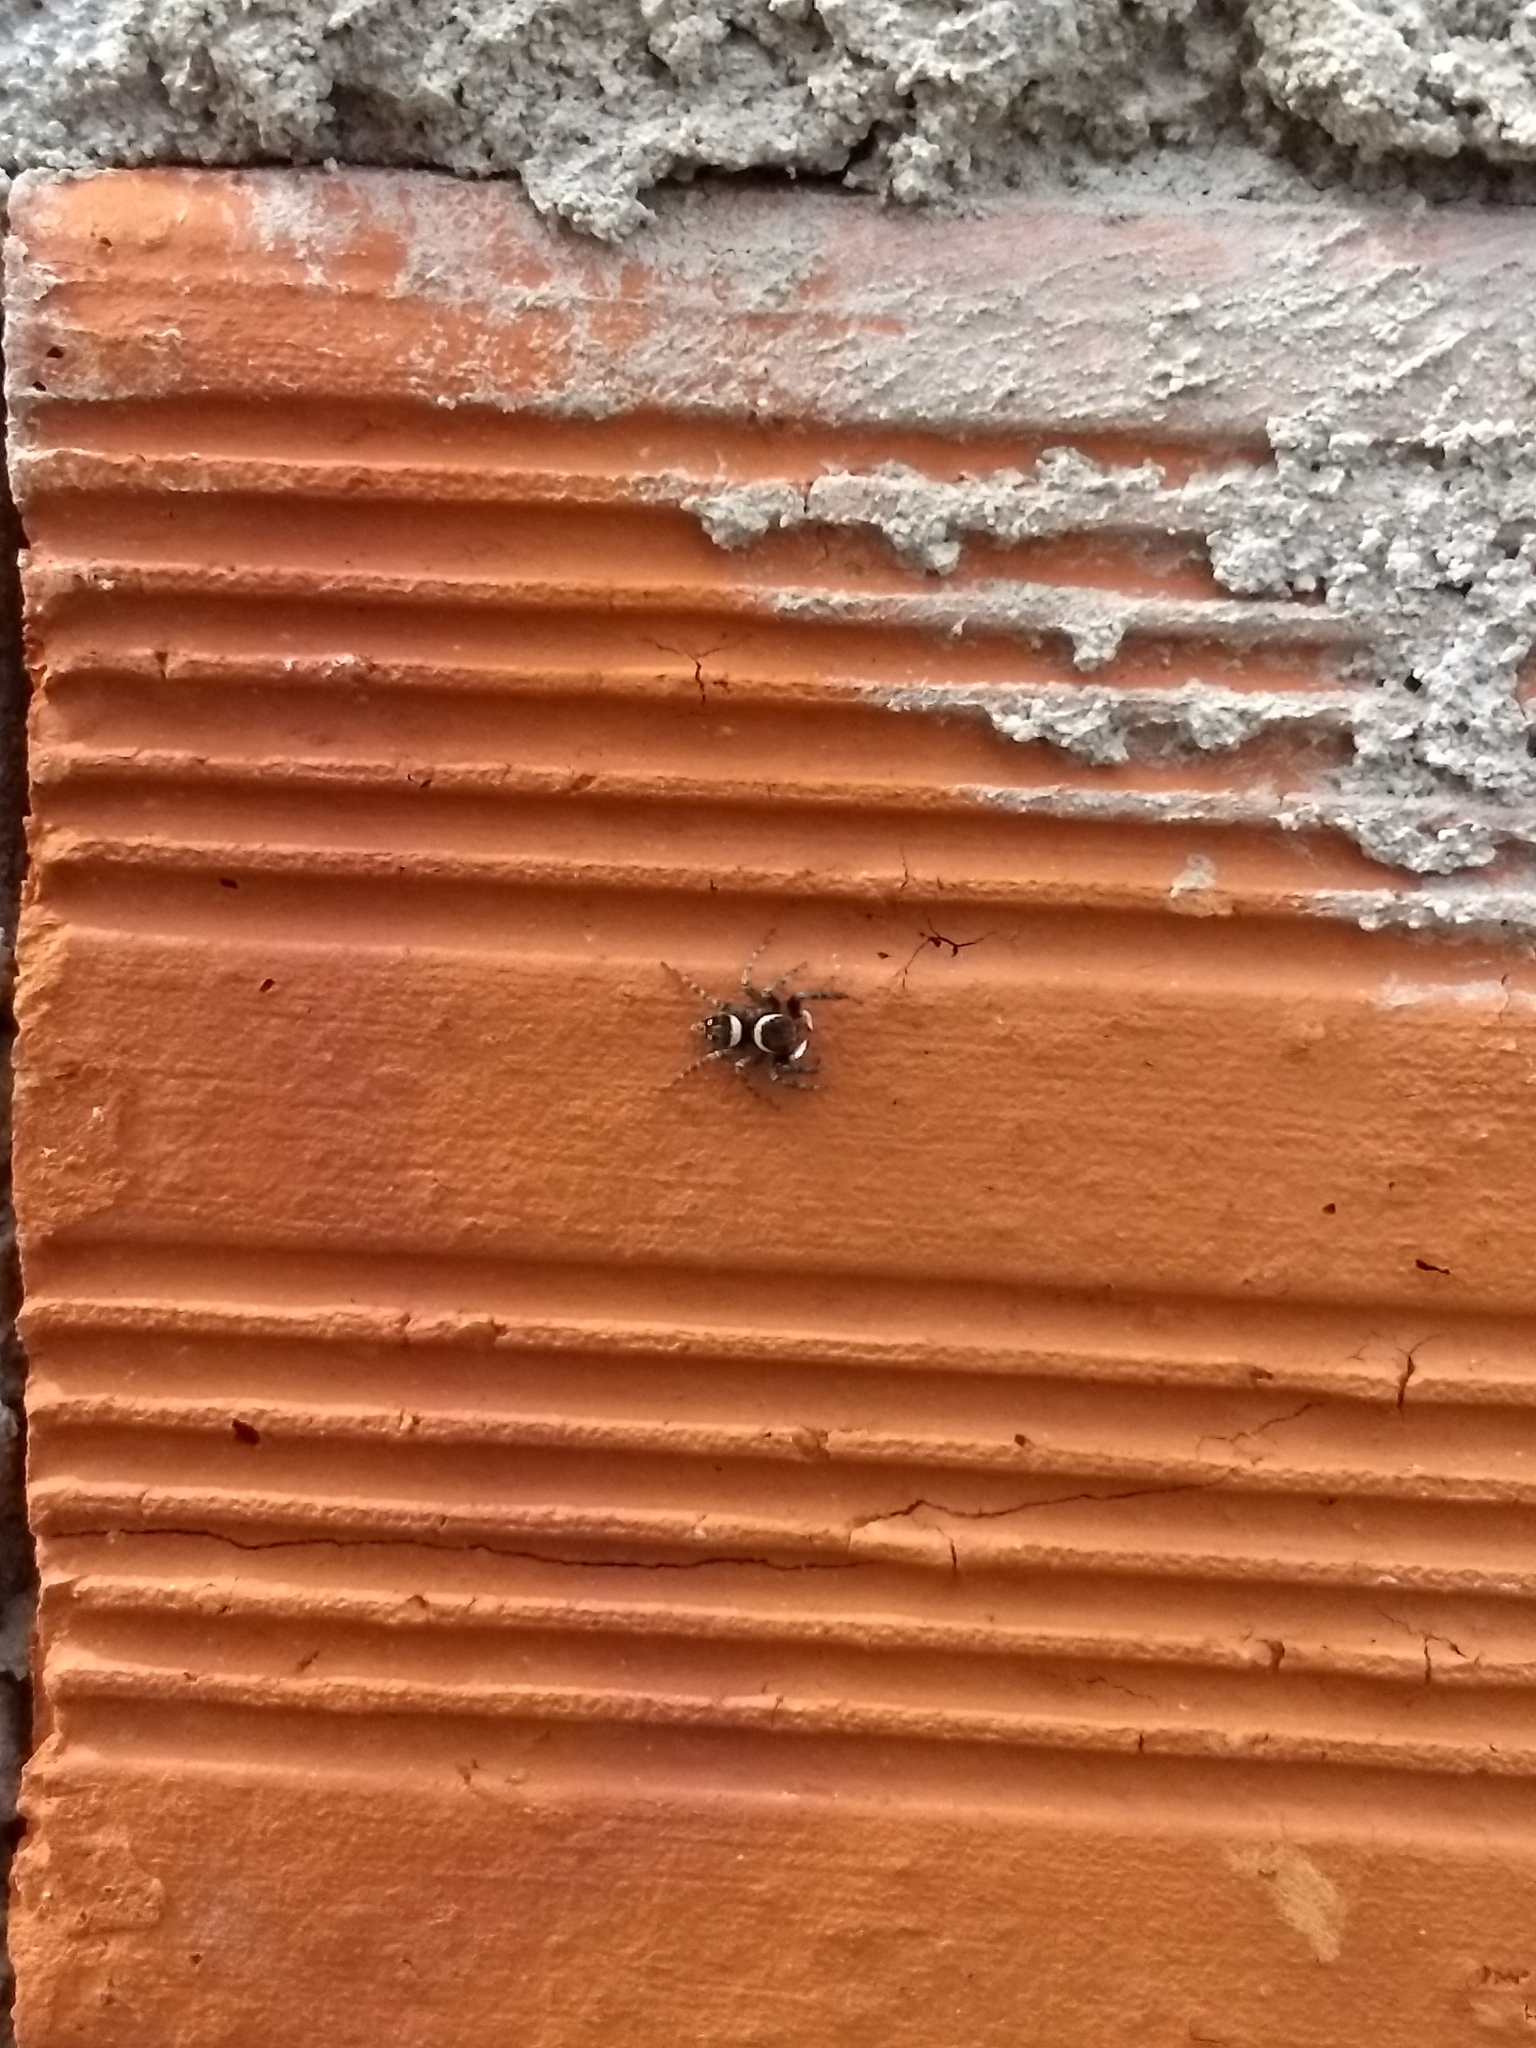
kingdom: Animalia
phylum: Arthropoda
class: Arachnida
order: Araneae
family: Salticidae
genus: Hasarius
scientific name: Hasarius adansoni
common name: Jumping spider
